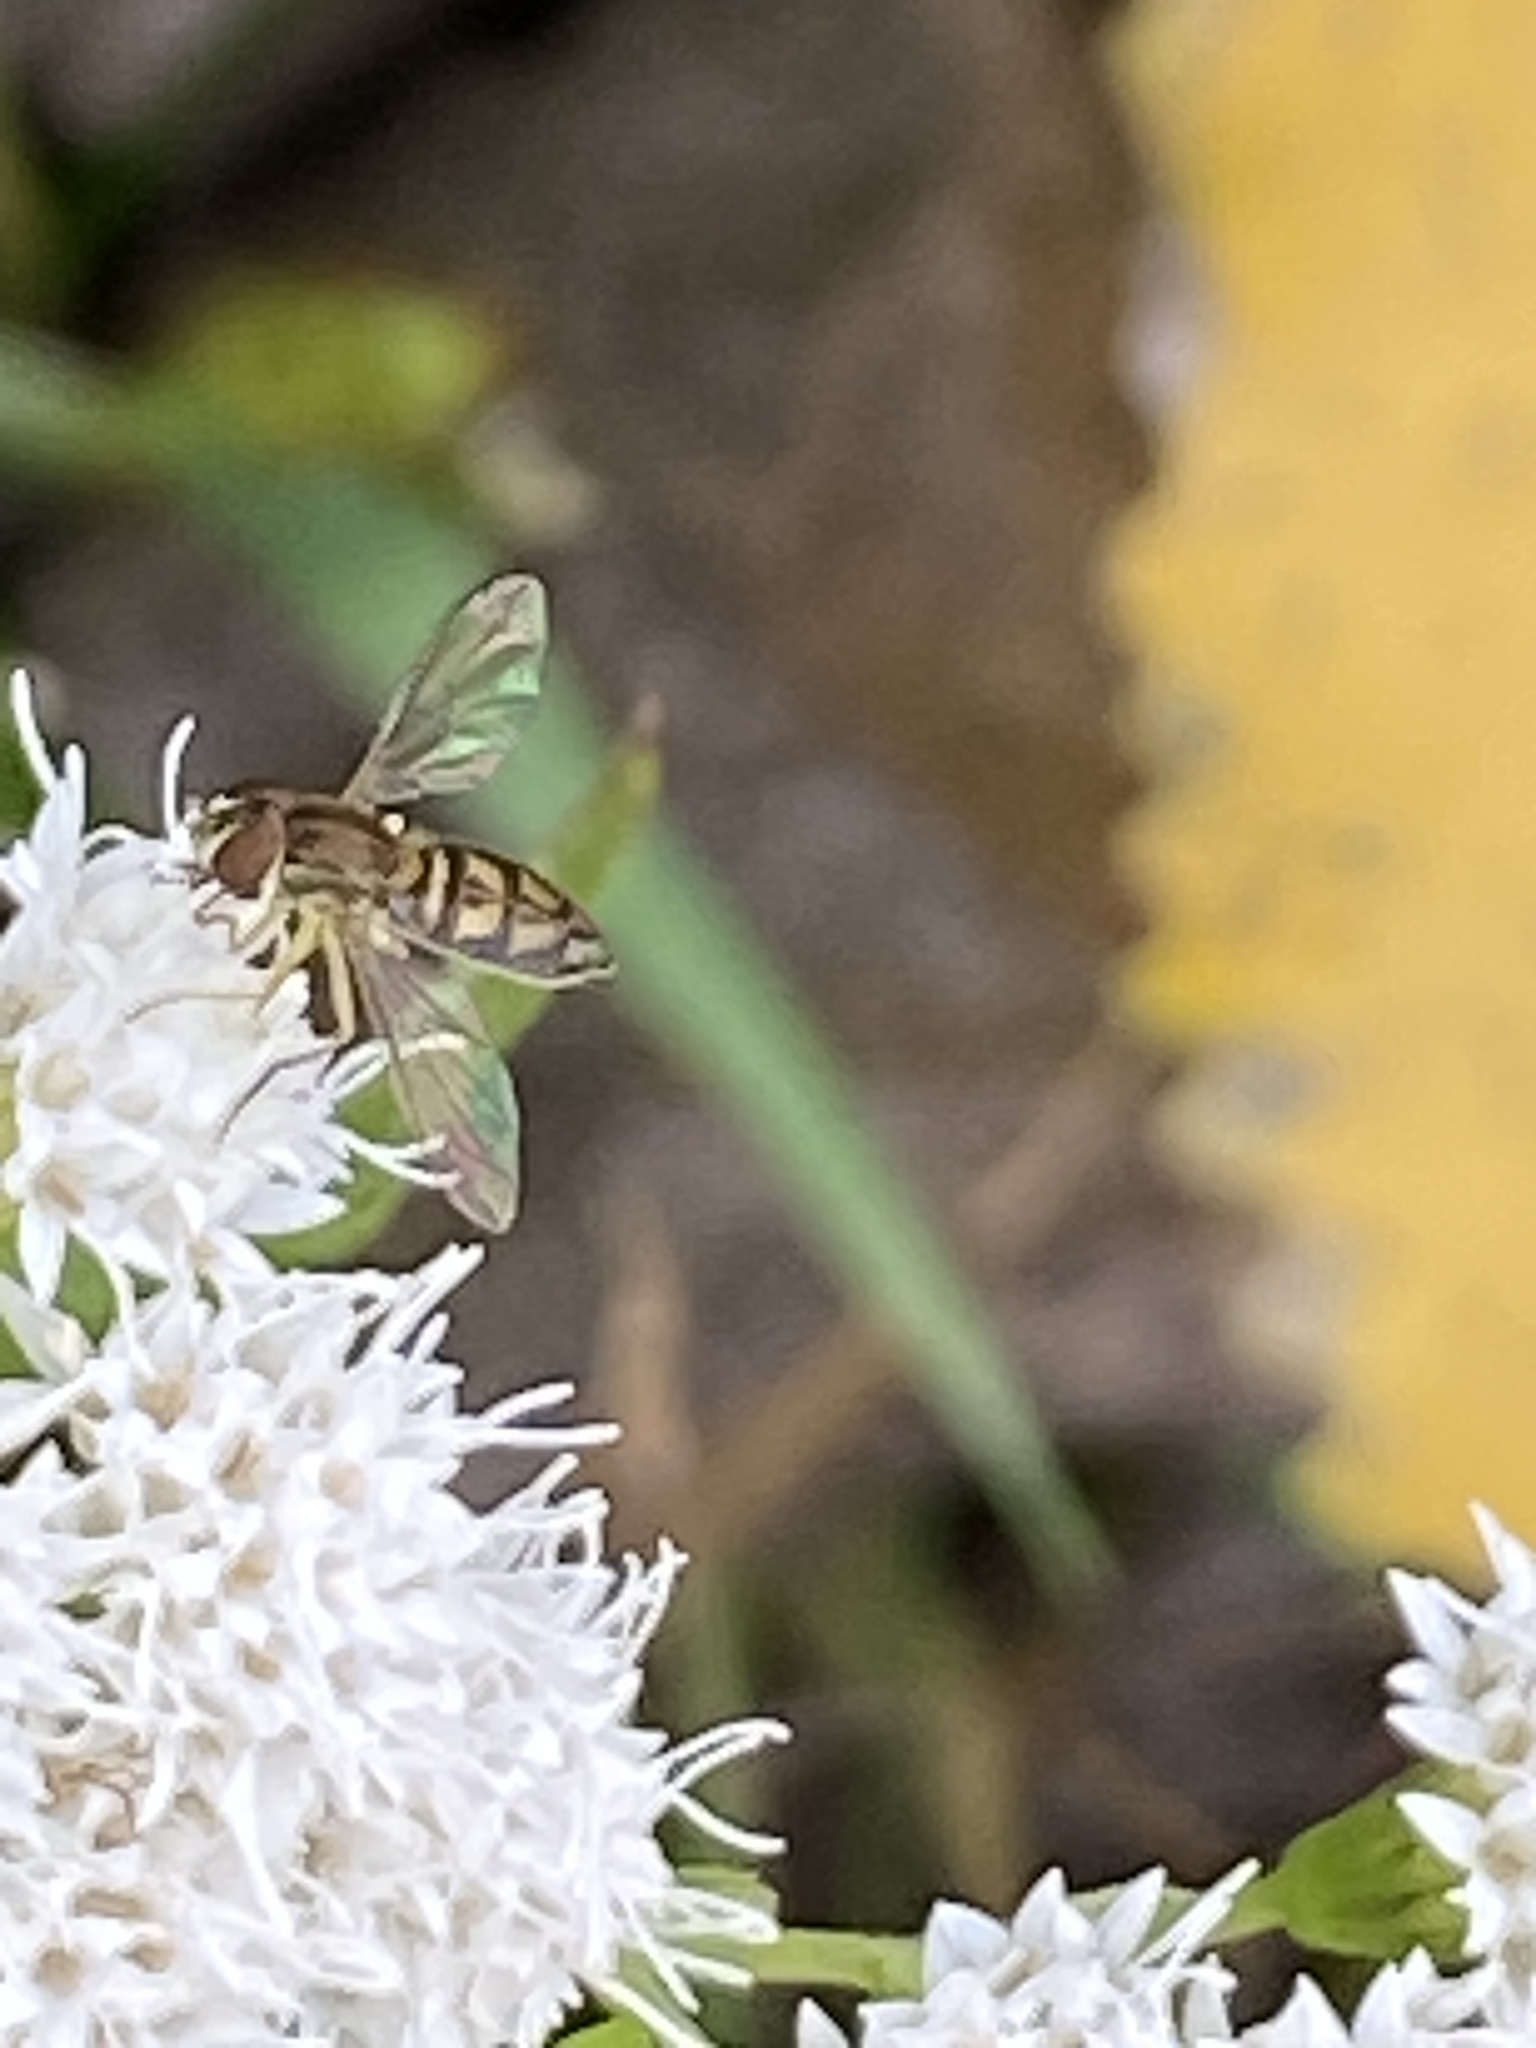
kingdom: Animalia
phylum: Arthropoda
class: Insecta
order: Diptera
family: Syrphidae
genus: Toxomerus
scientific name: Toxomerus marginatus
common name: Syrphid fly
